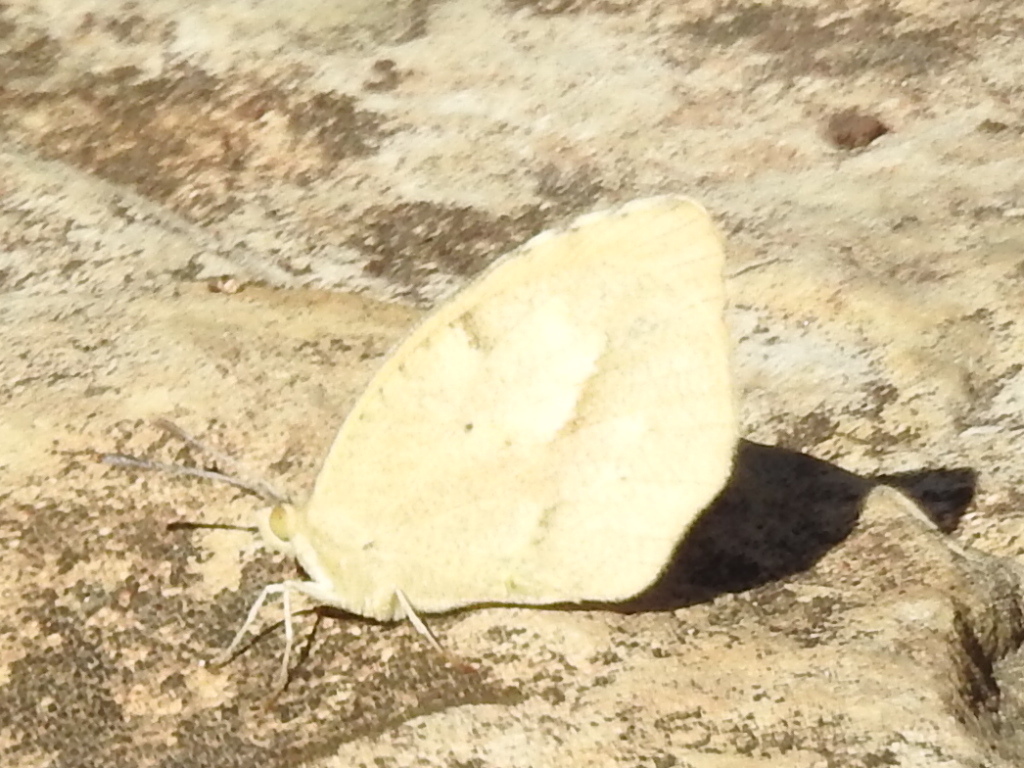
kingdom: Animalia
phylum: Arthropoda
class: Insecta
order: Lepidoptera
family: Pieridae
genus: Abaeis
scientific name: Abaeis nicippe
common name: Sleepy orange
